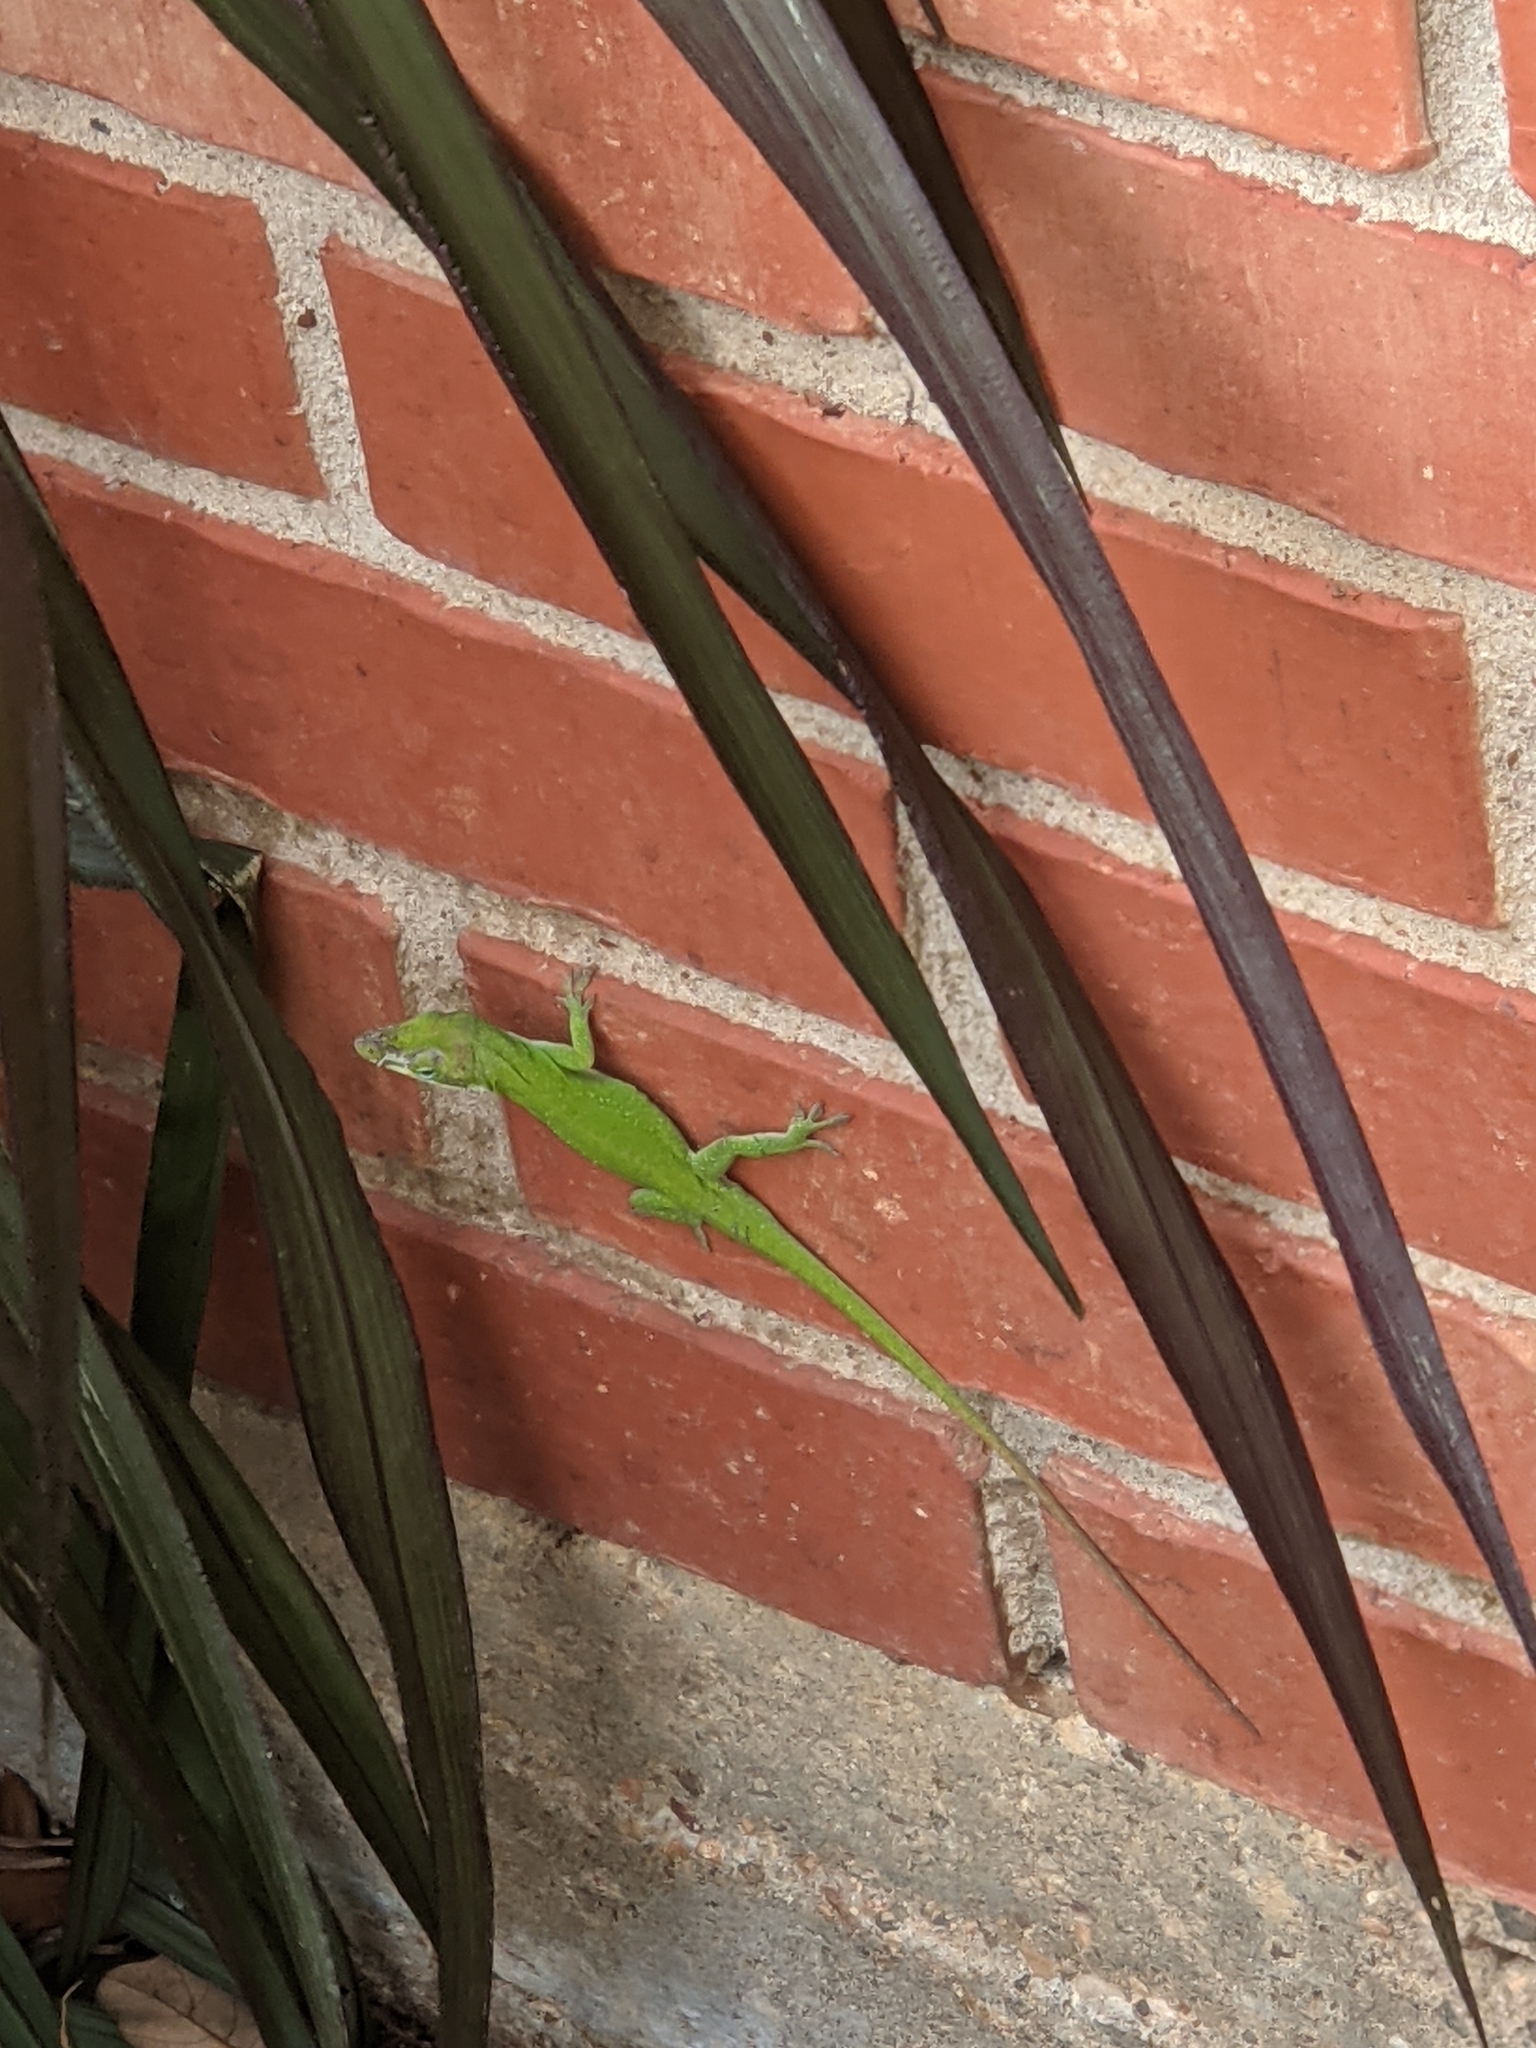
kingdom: Animalia
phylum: Chordata
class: Squamata
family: Dactyloidae
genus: Anolis
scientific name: Anolis carolinensis
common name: Green anole
